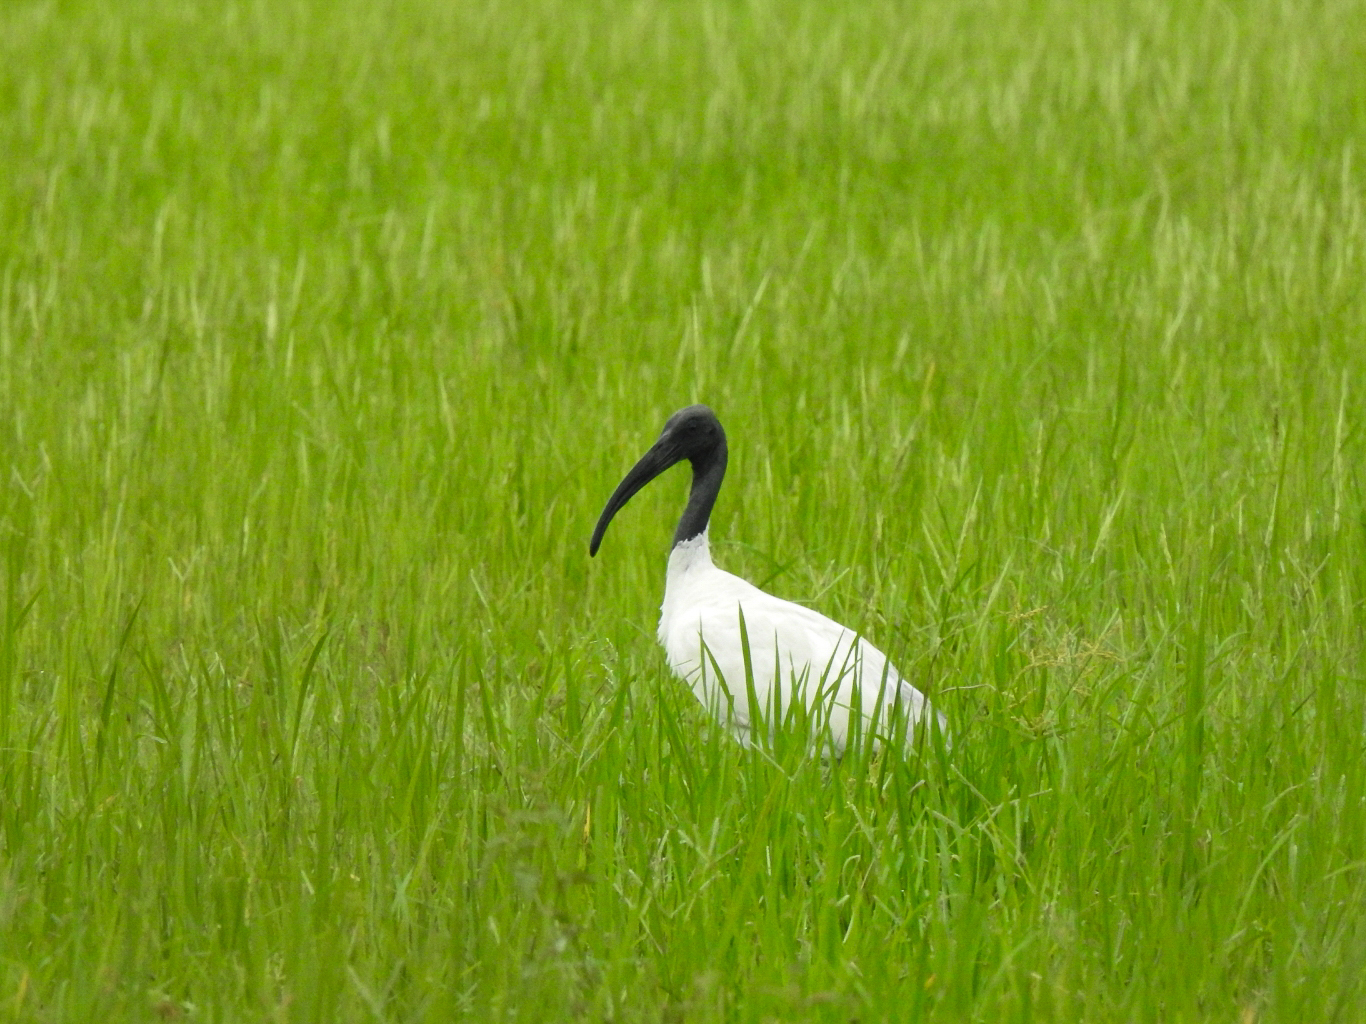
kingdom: Animalia
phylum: Chordata
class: Aves
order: Pelecaniformes
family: Threskiornithidae
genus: Threskiornis
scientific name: Threskiornis melanocephalus
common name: Black-headed ibis
